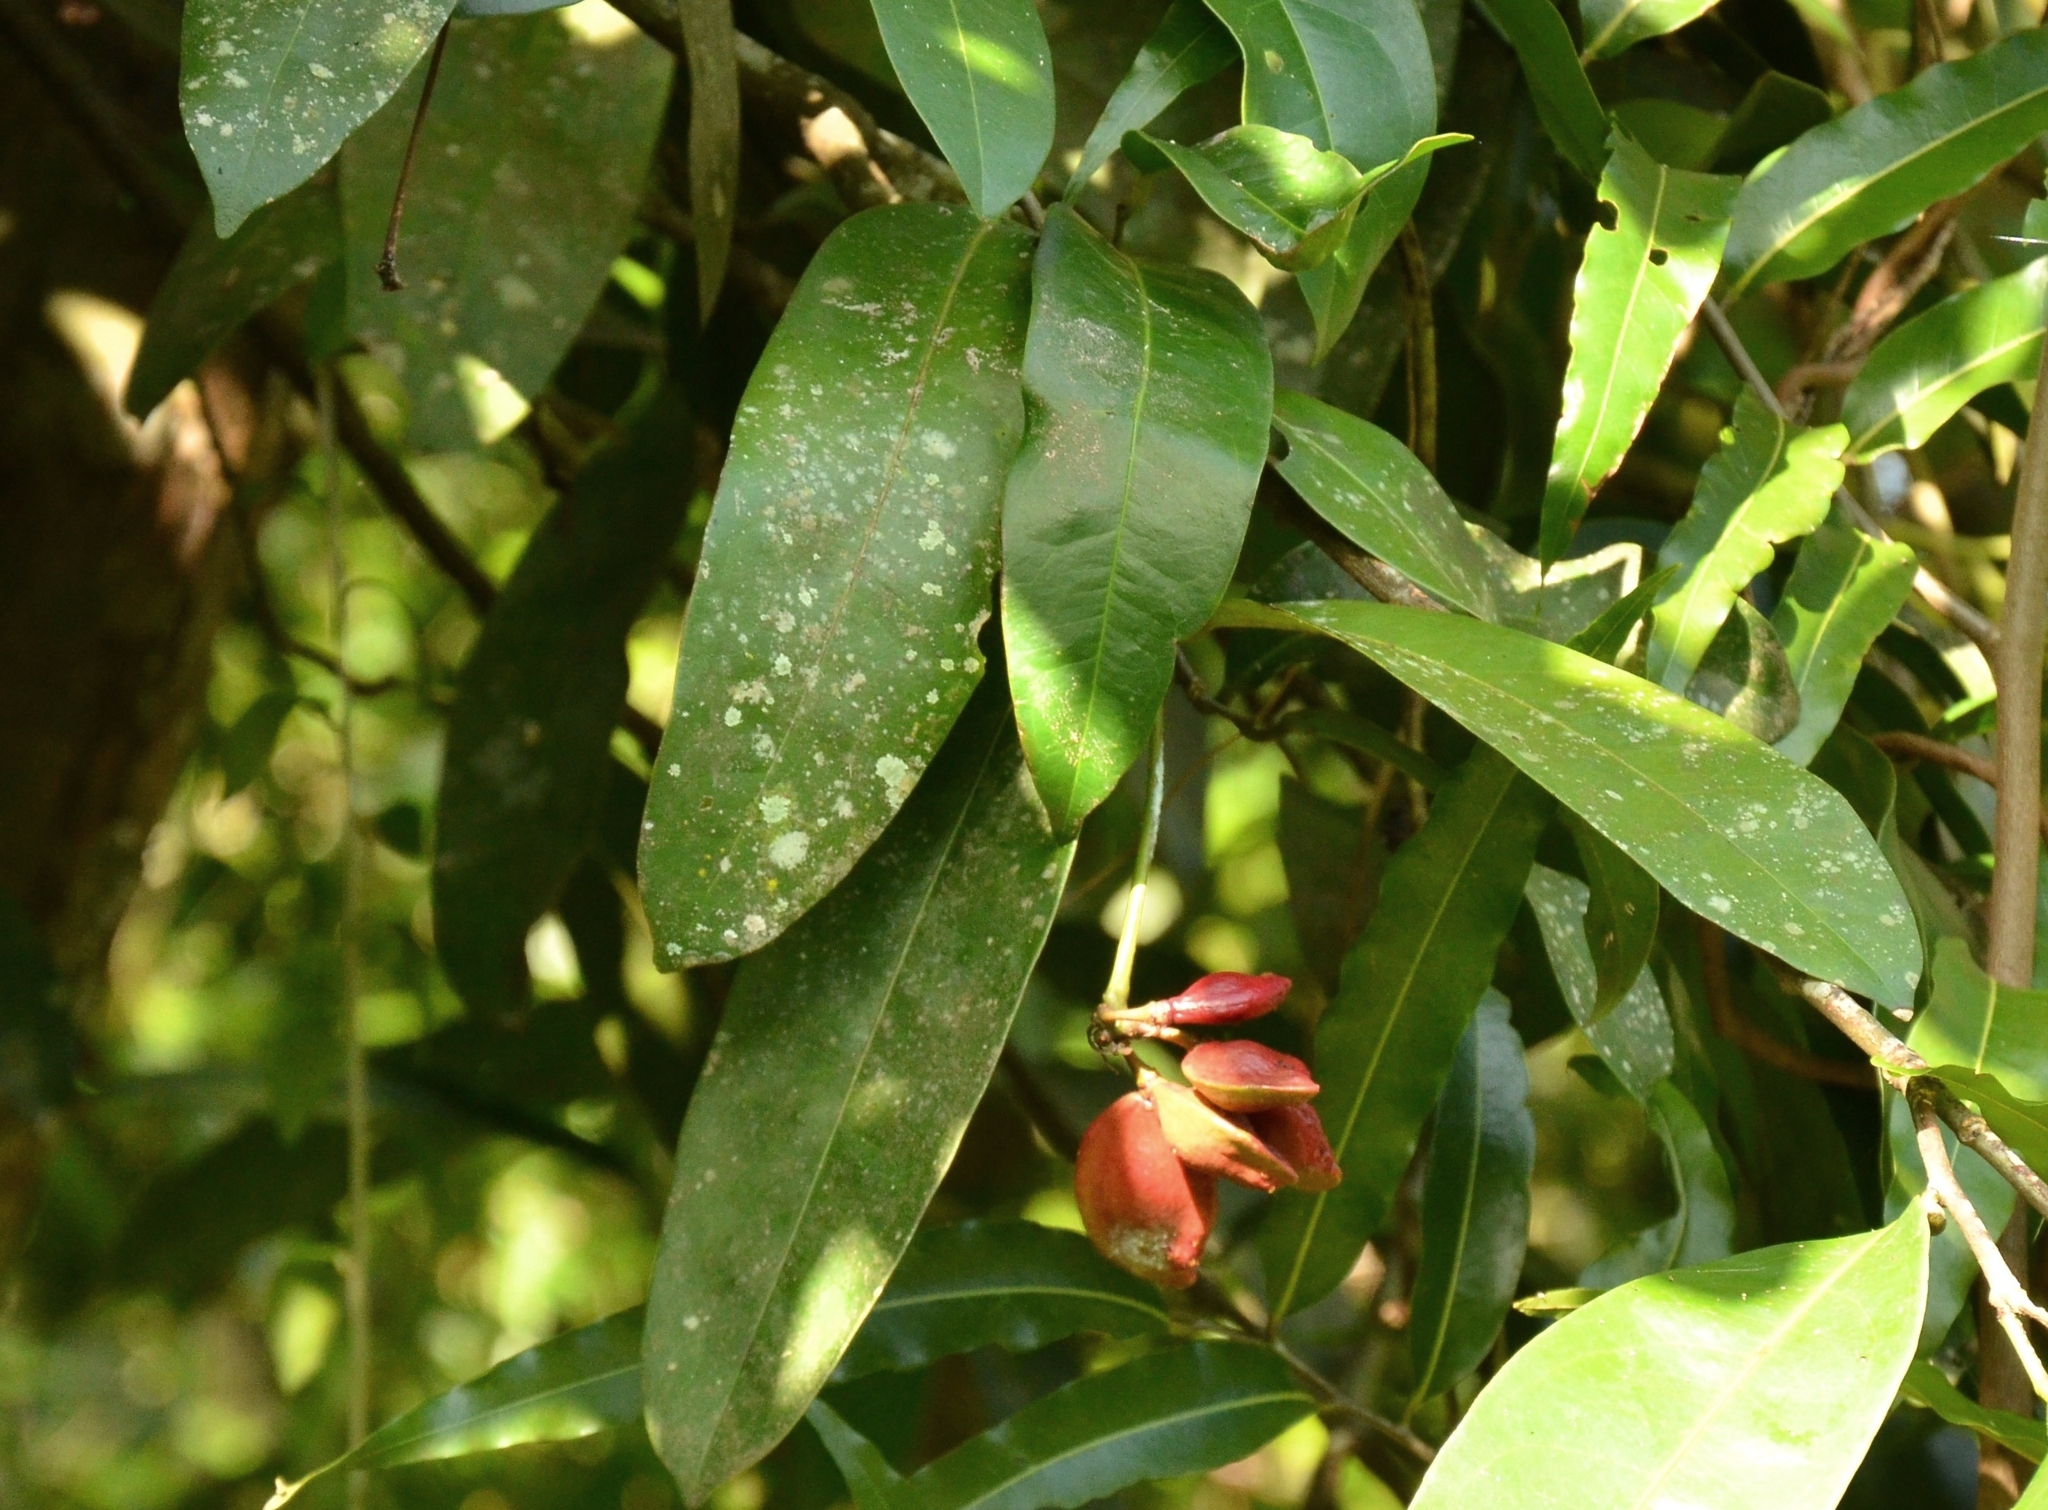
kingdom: Plantae
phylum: Tracheophyta
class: Magnoliopsida
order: Sapindales
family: Simaroubaceae
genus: Samadera
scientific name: Samadera indica
